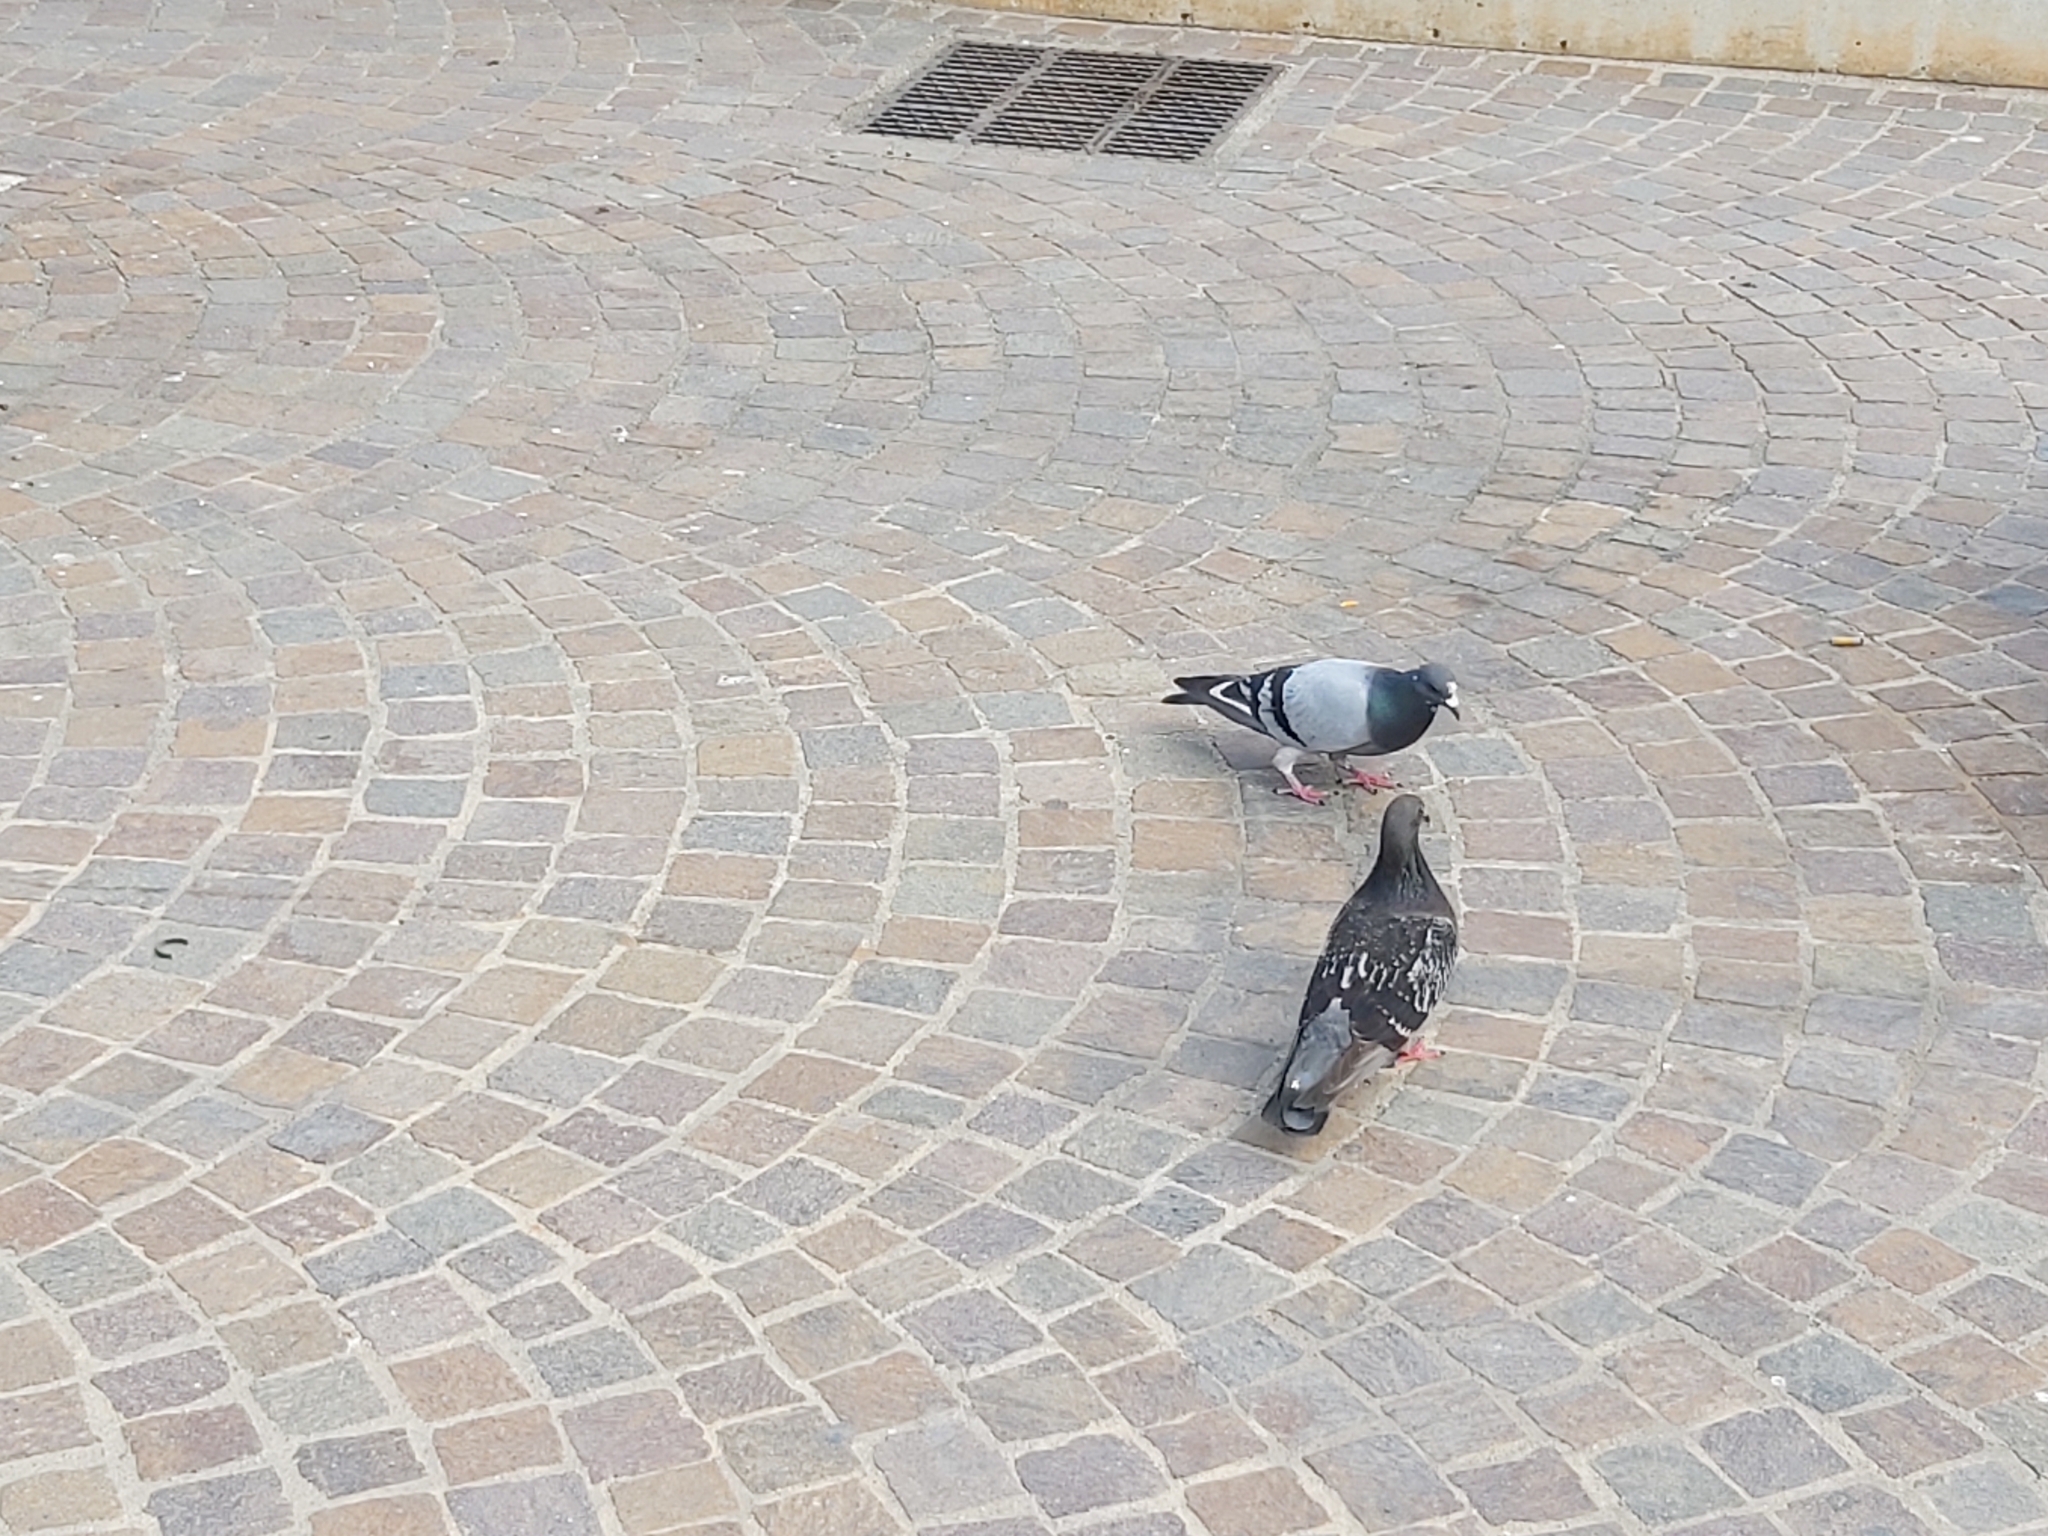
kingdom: Animalia
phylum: Chordata
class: Aves
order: Columbiformes
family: Columbidae
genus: Columba
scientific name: Columba livia
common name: Rock pigeon
